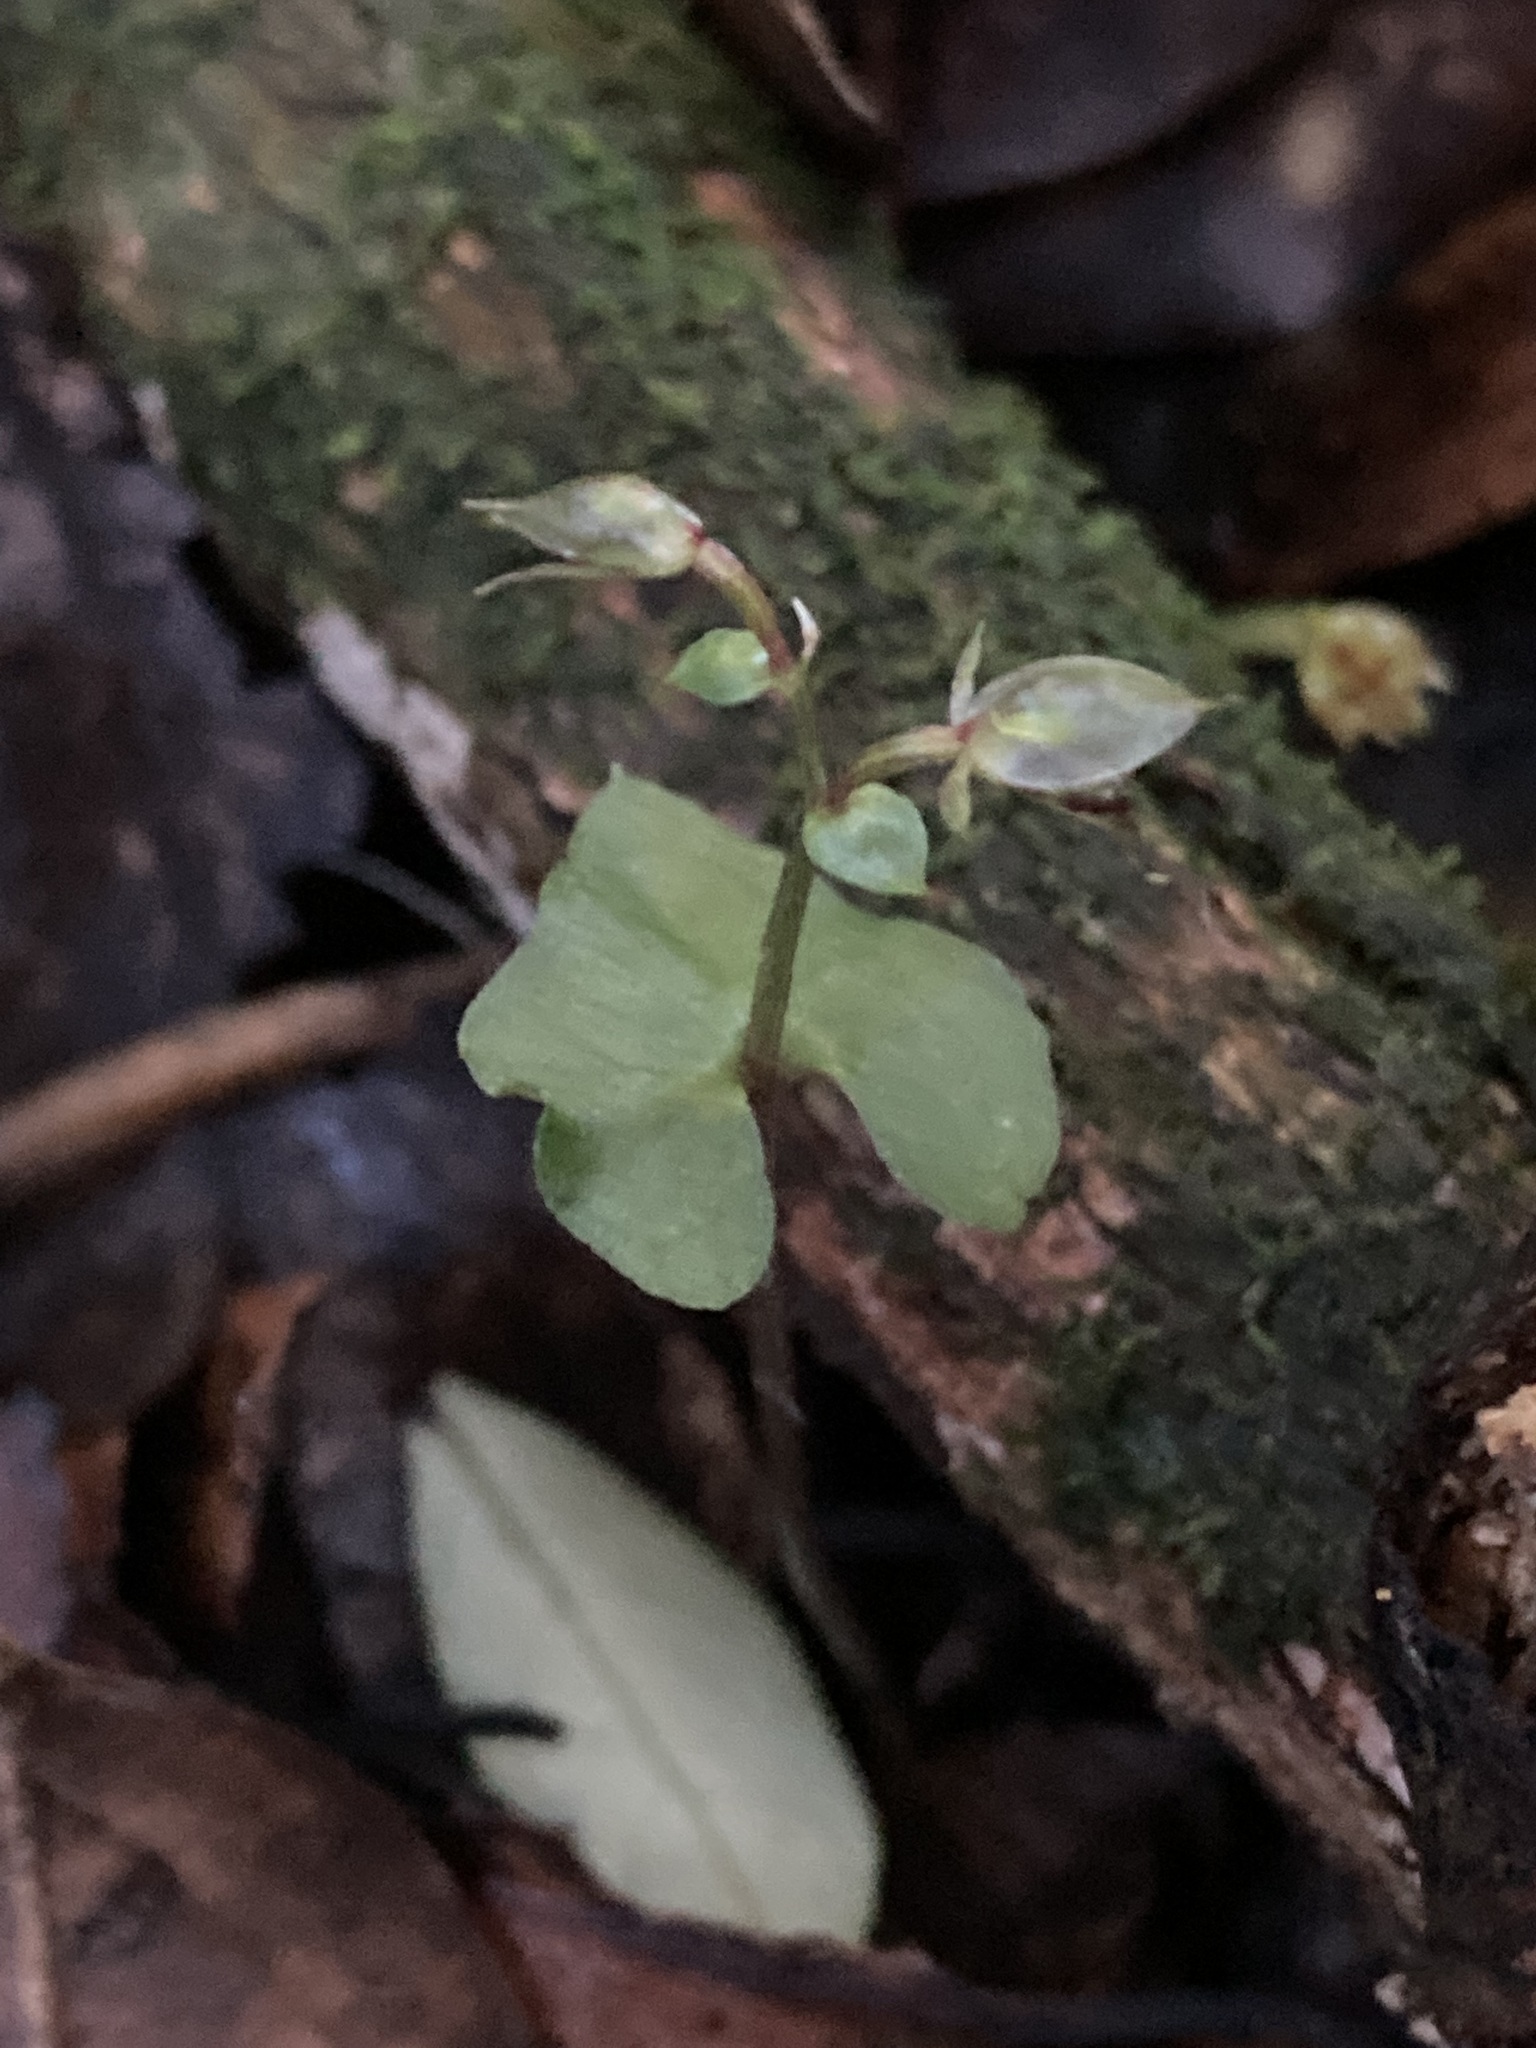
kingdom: Plantae
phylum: Tracheophyta
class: Liliopsida
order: Asparagales
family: Orchidaceae
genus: Acianthus
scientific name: Acianthus sinclairii
